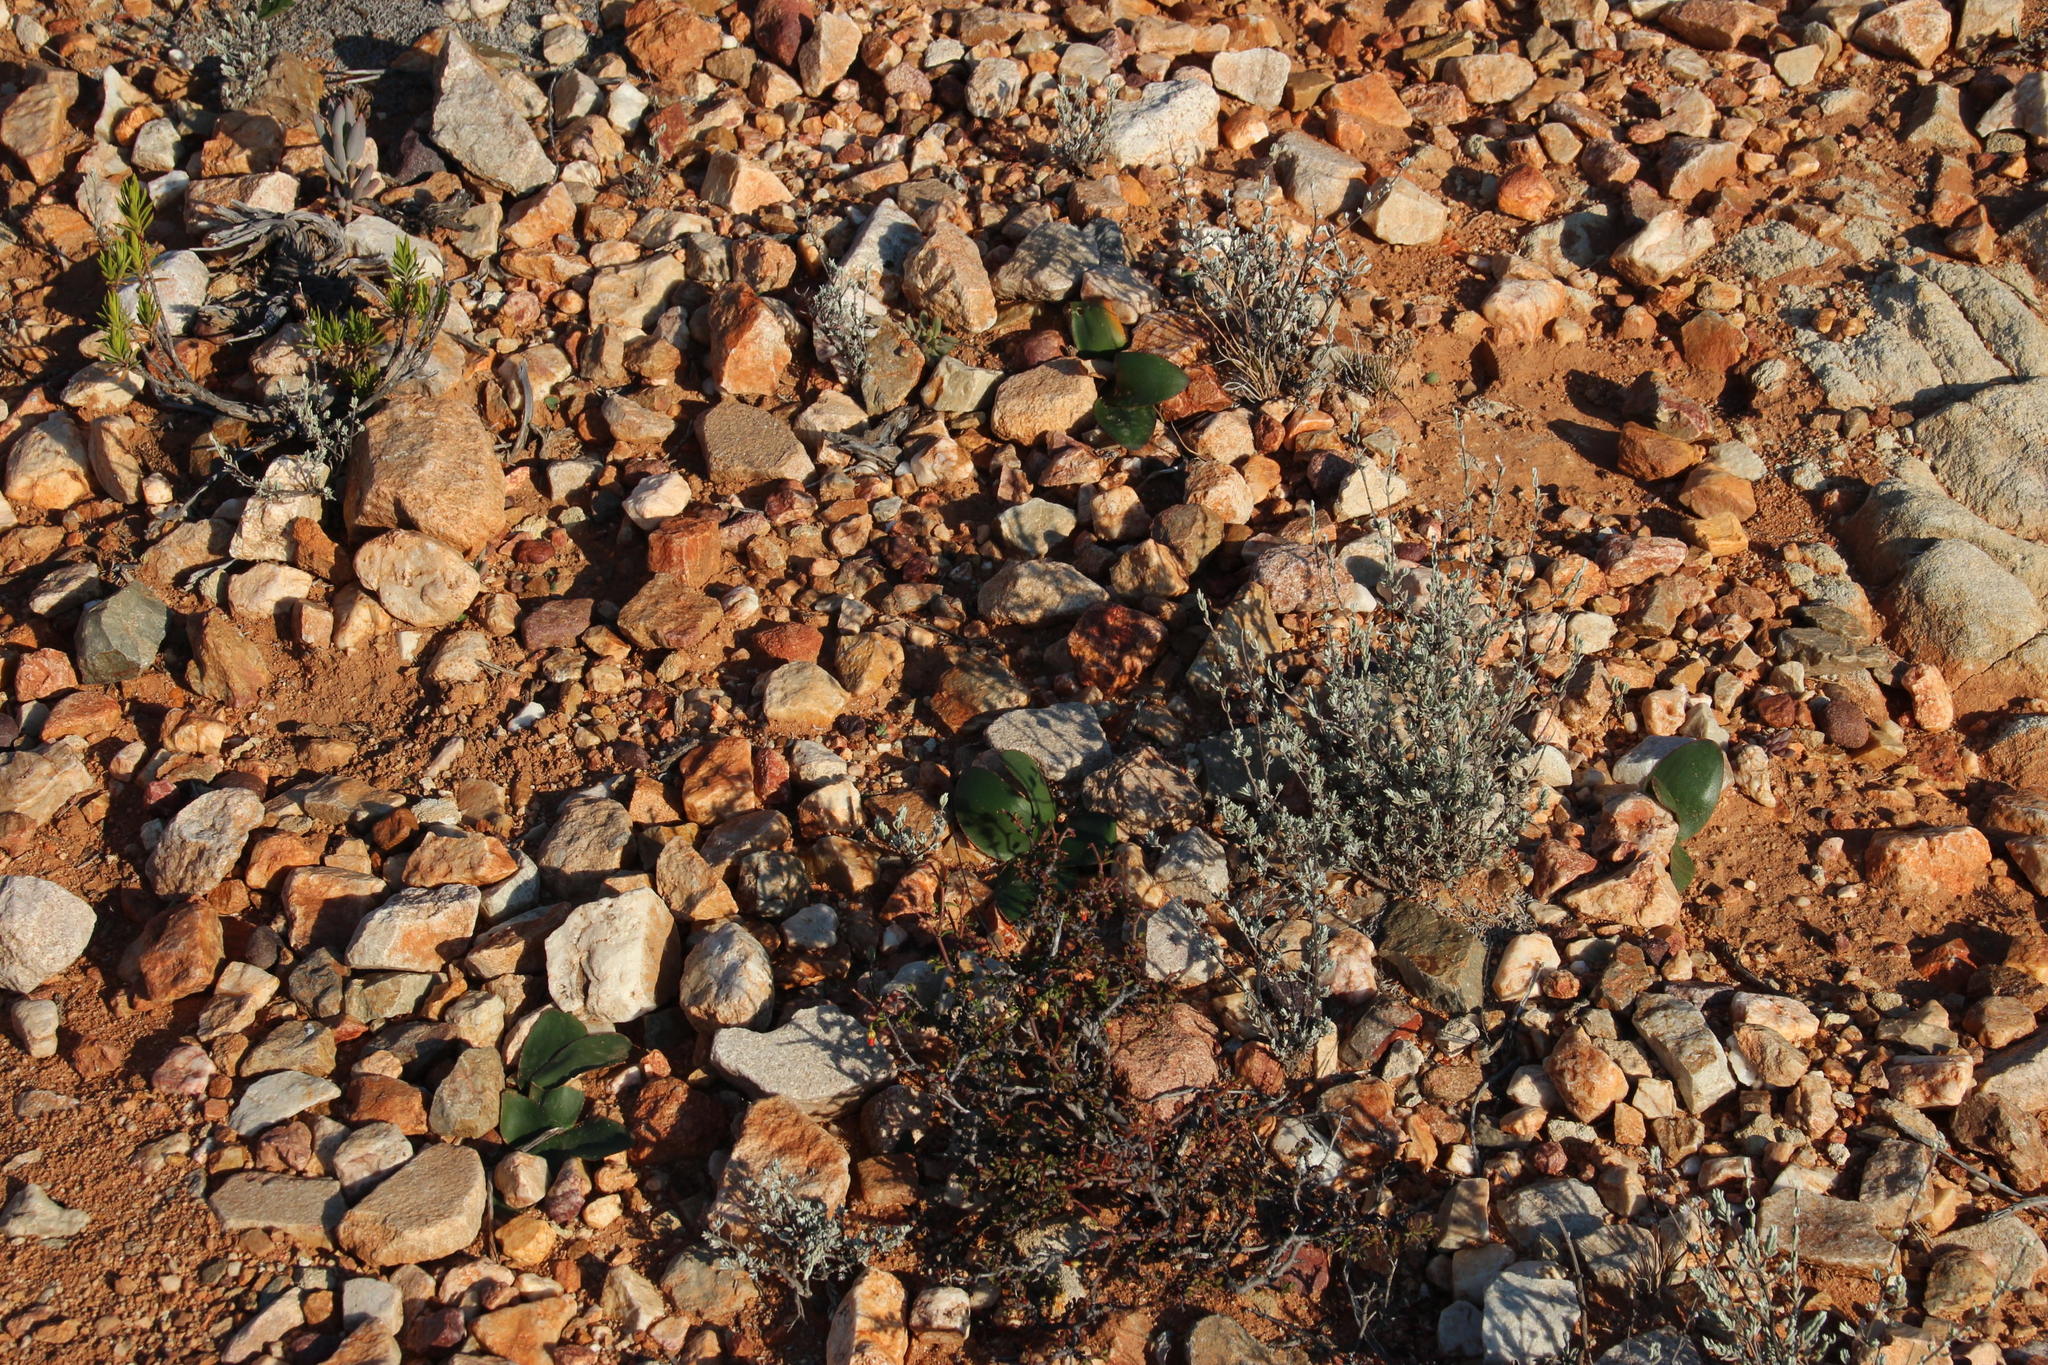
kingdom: Plantae
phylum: Tracheophyta
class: Liliopsida
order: Asparagales
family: Amaryllidaceae
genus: Brunsvigia
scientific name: Brunsvigia nervosa
